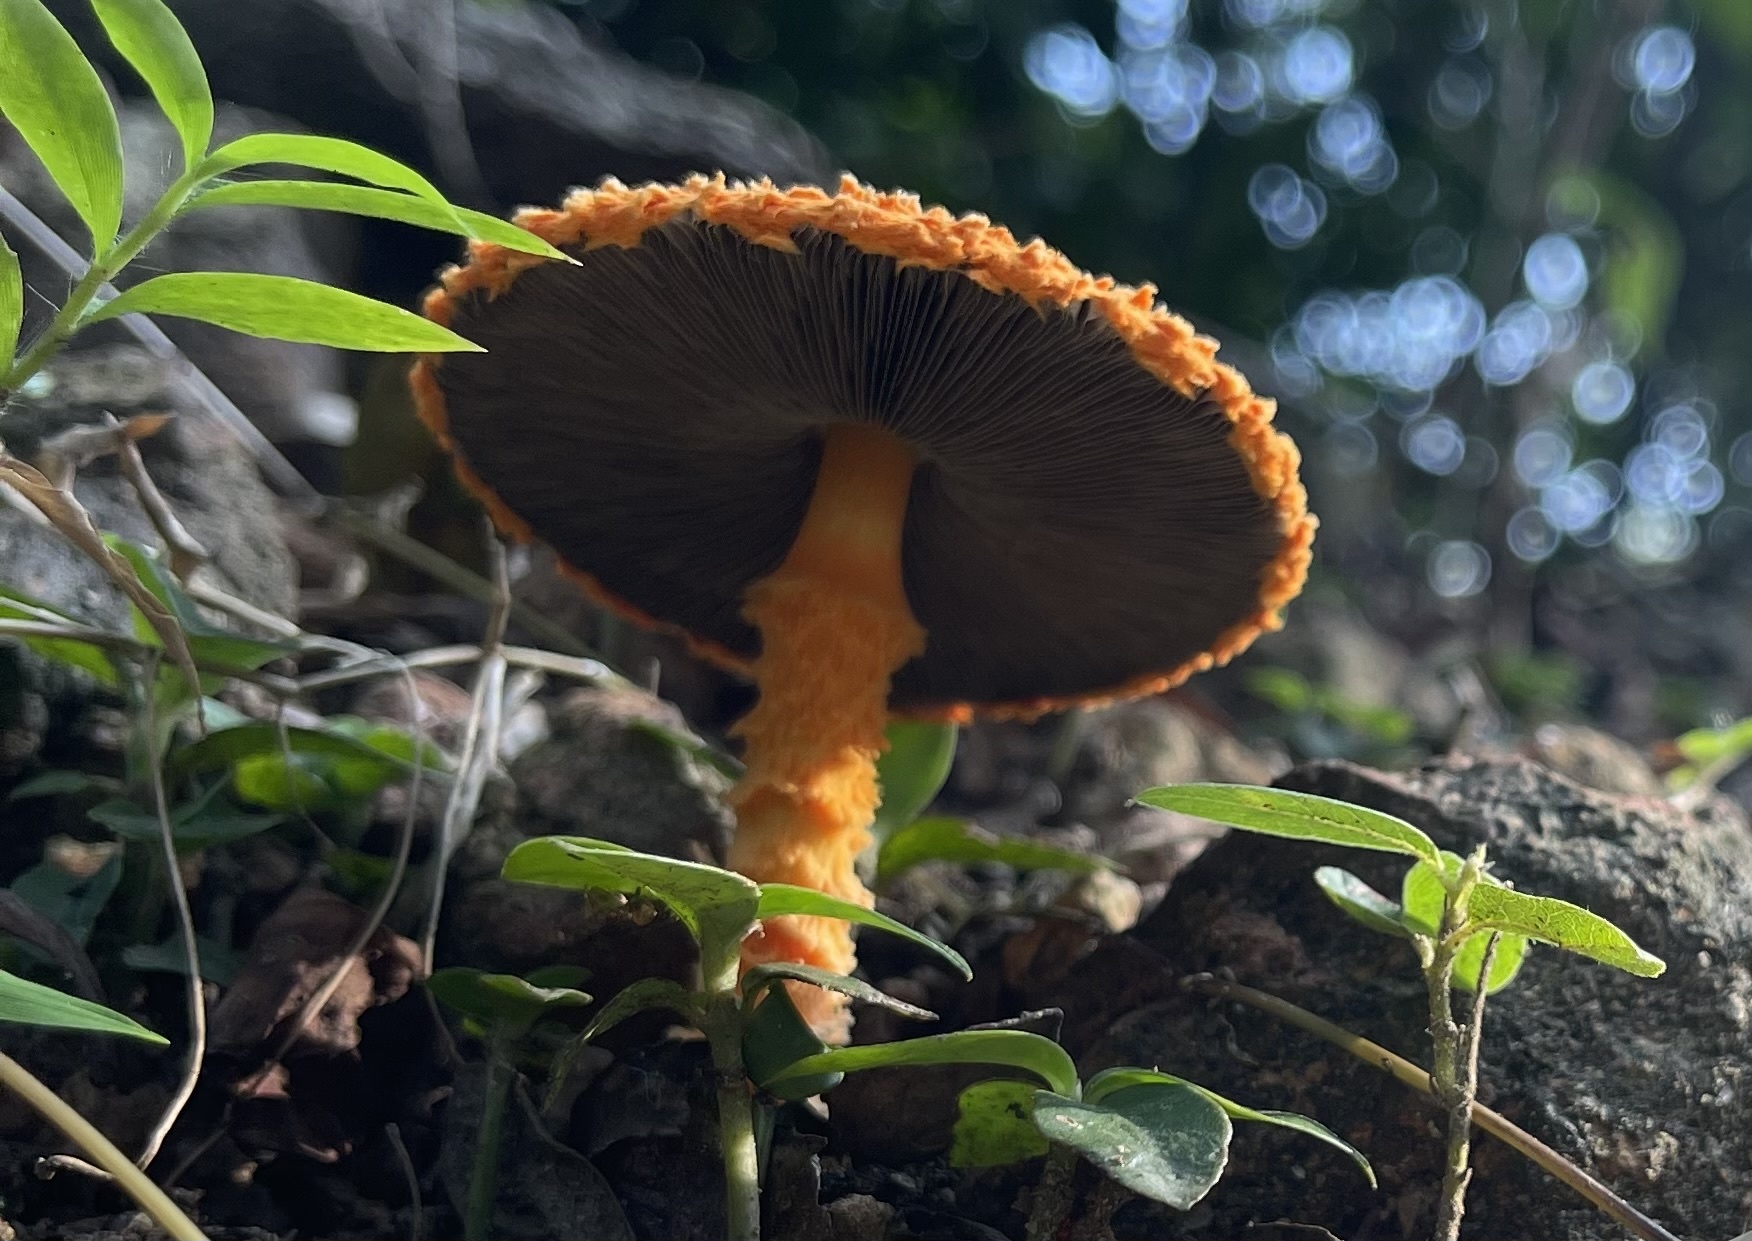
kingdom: Fungi
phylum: Basidiomycota
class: Agaricomycetes
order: Agaricales
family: Agaricaceae
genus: Agaricus
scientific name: Agaricus crocopeplus
